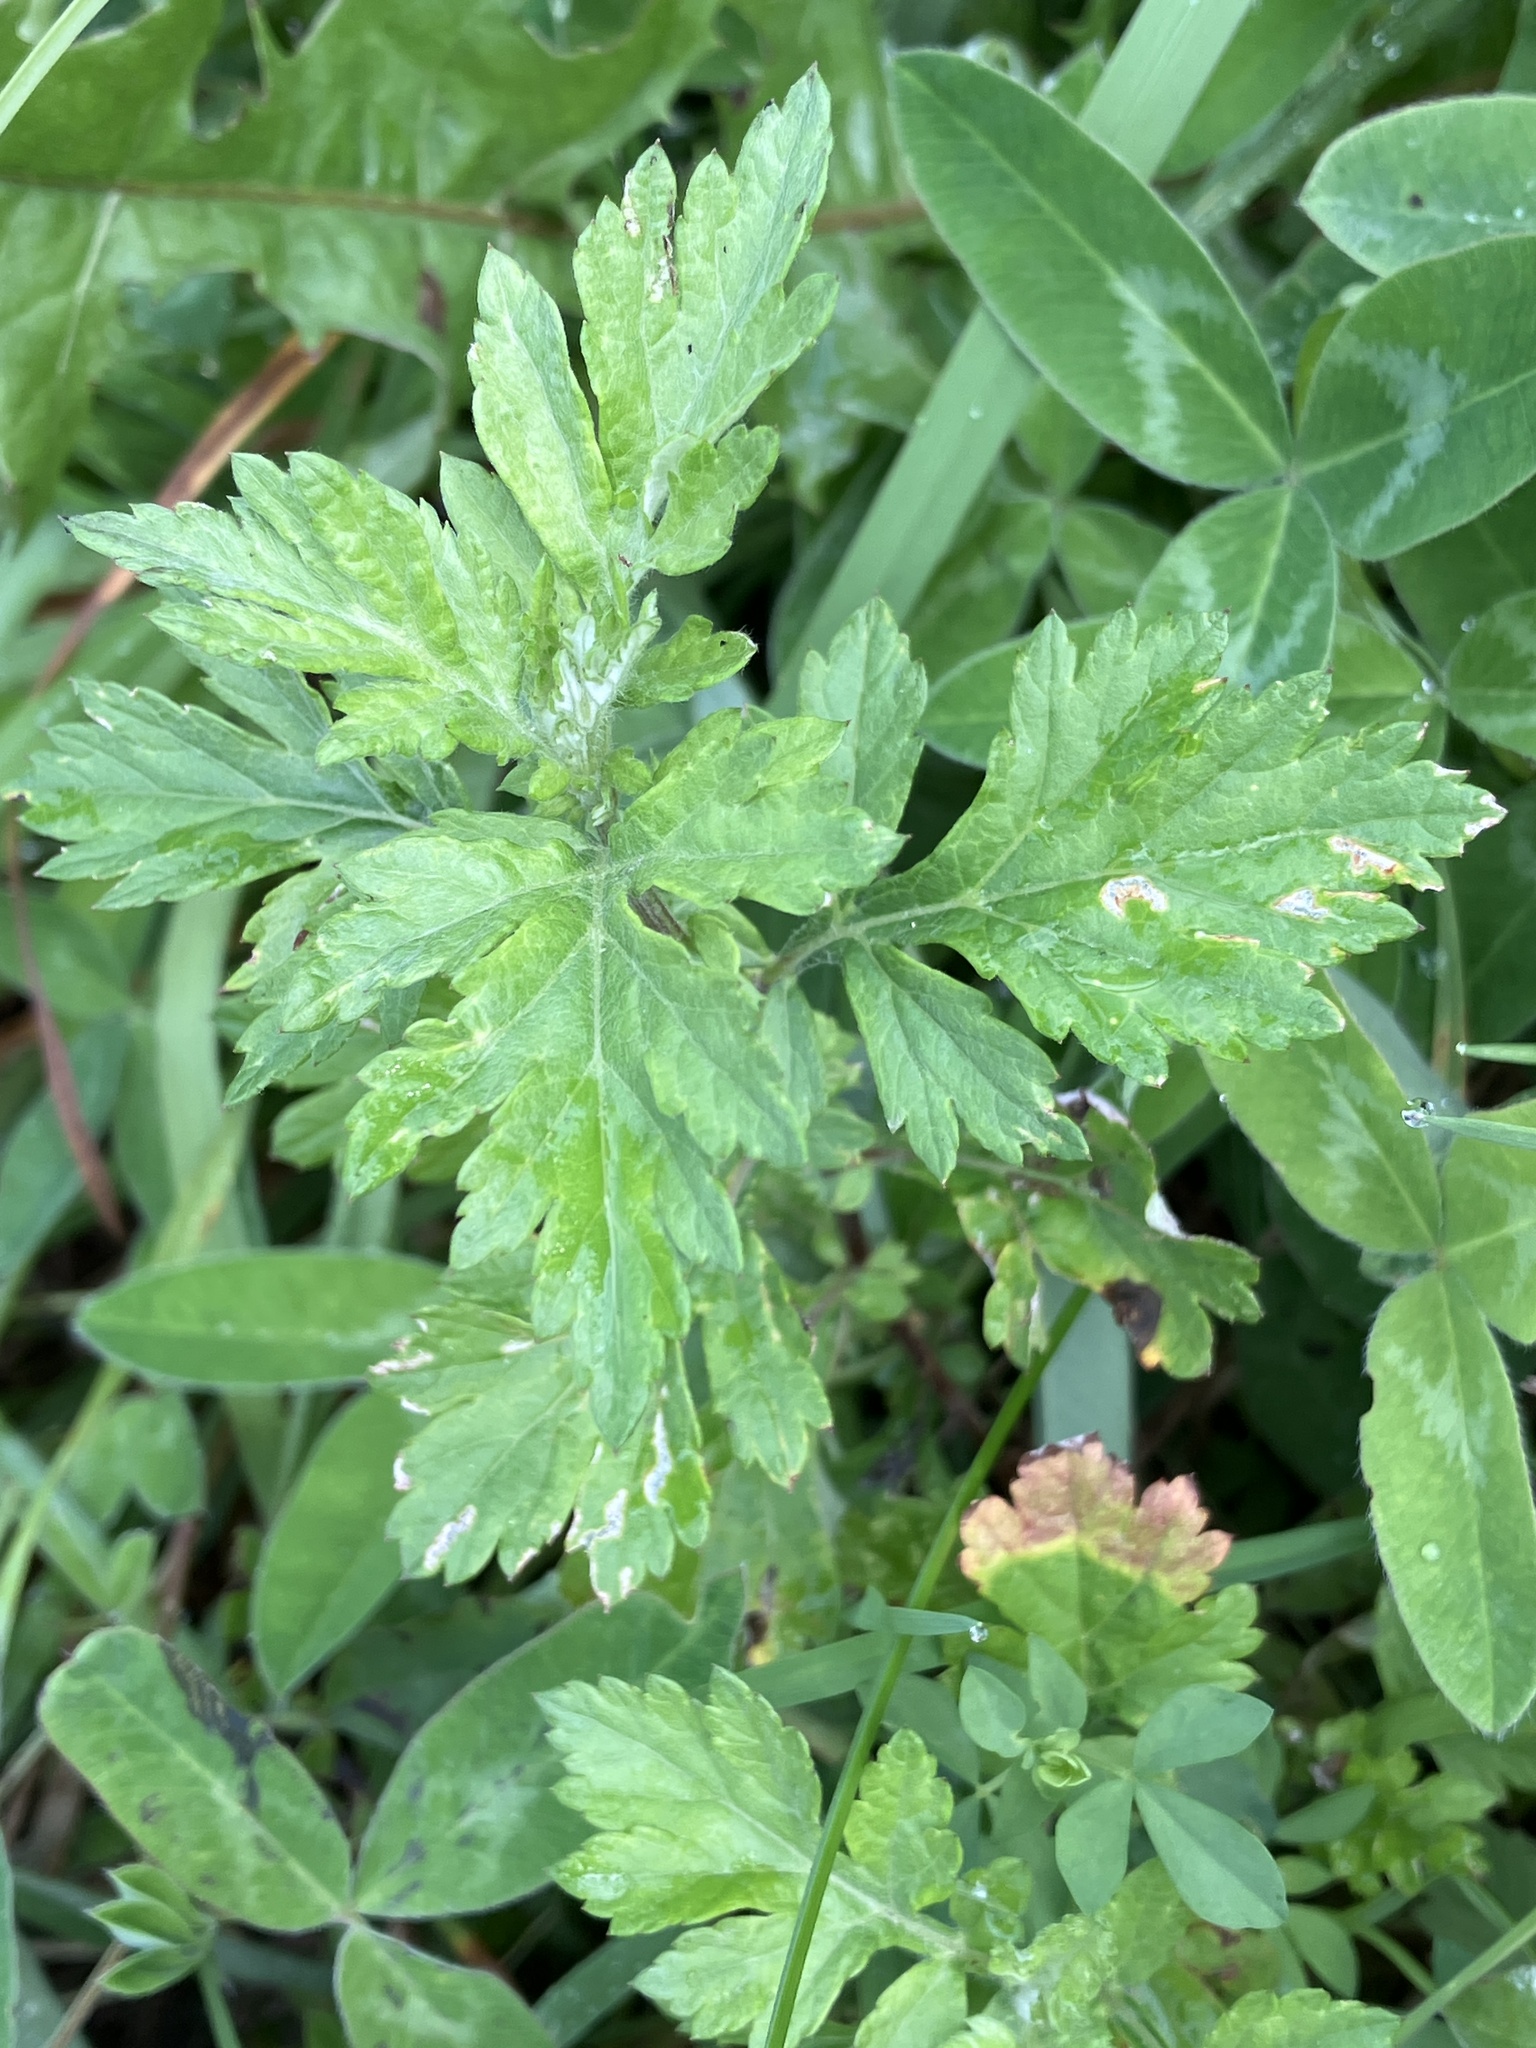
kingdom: Plantae
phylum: Tracheophyta
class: Magnoliopsida
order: Asterales
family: Asteraceae
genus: Artemisia
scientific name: Artemisia vulgaris
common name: Mugwort
